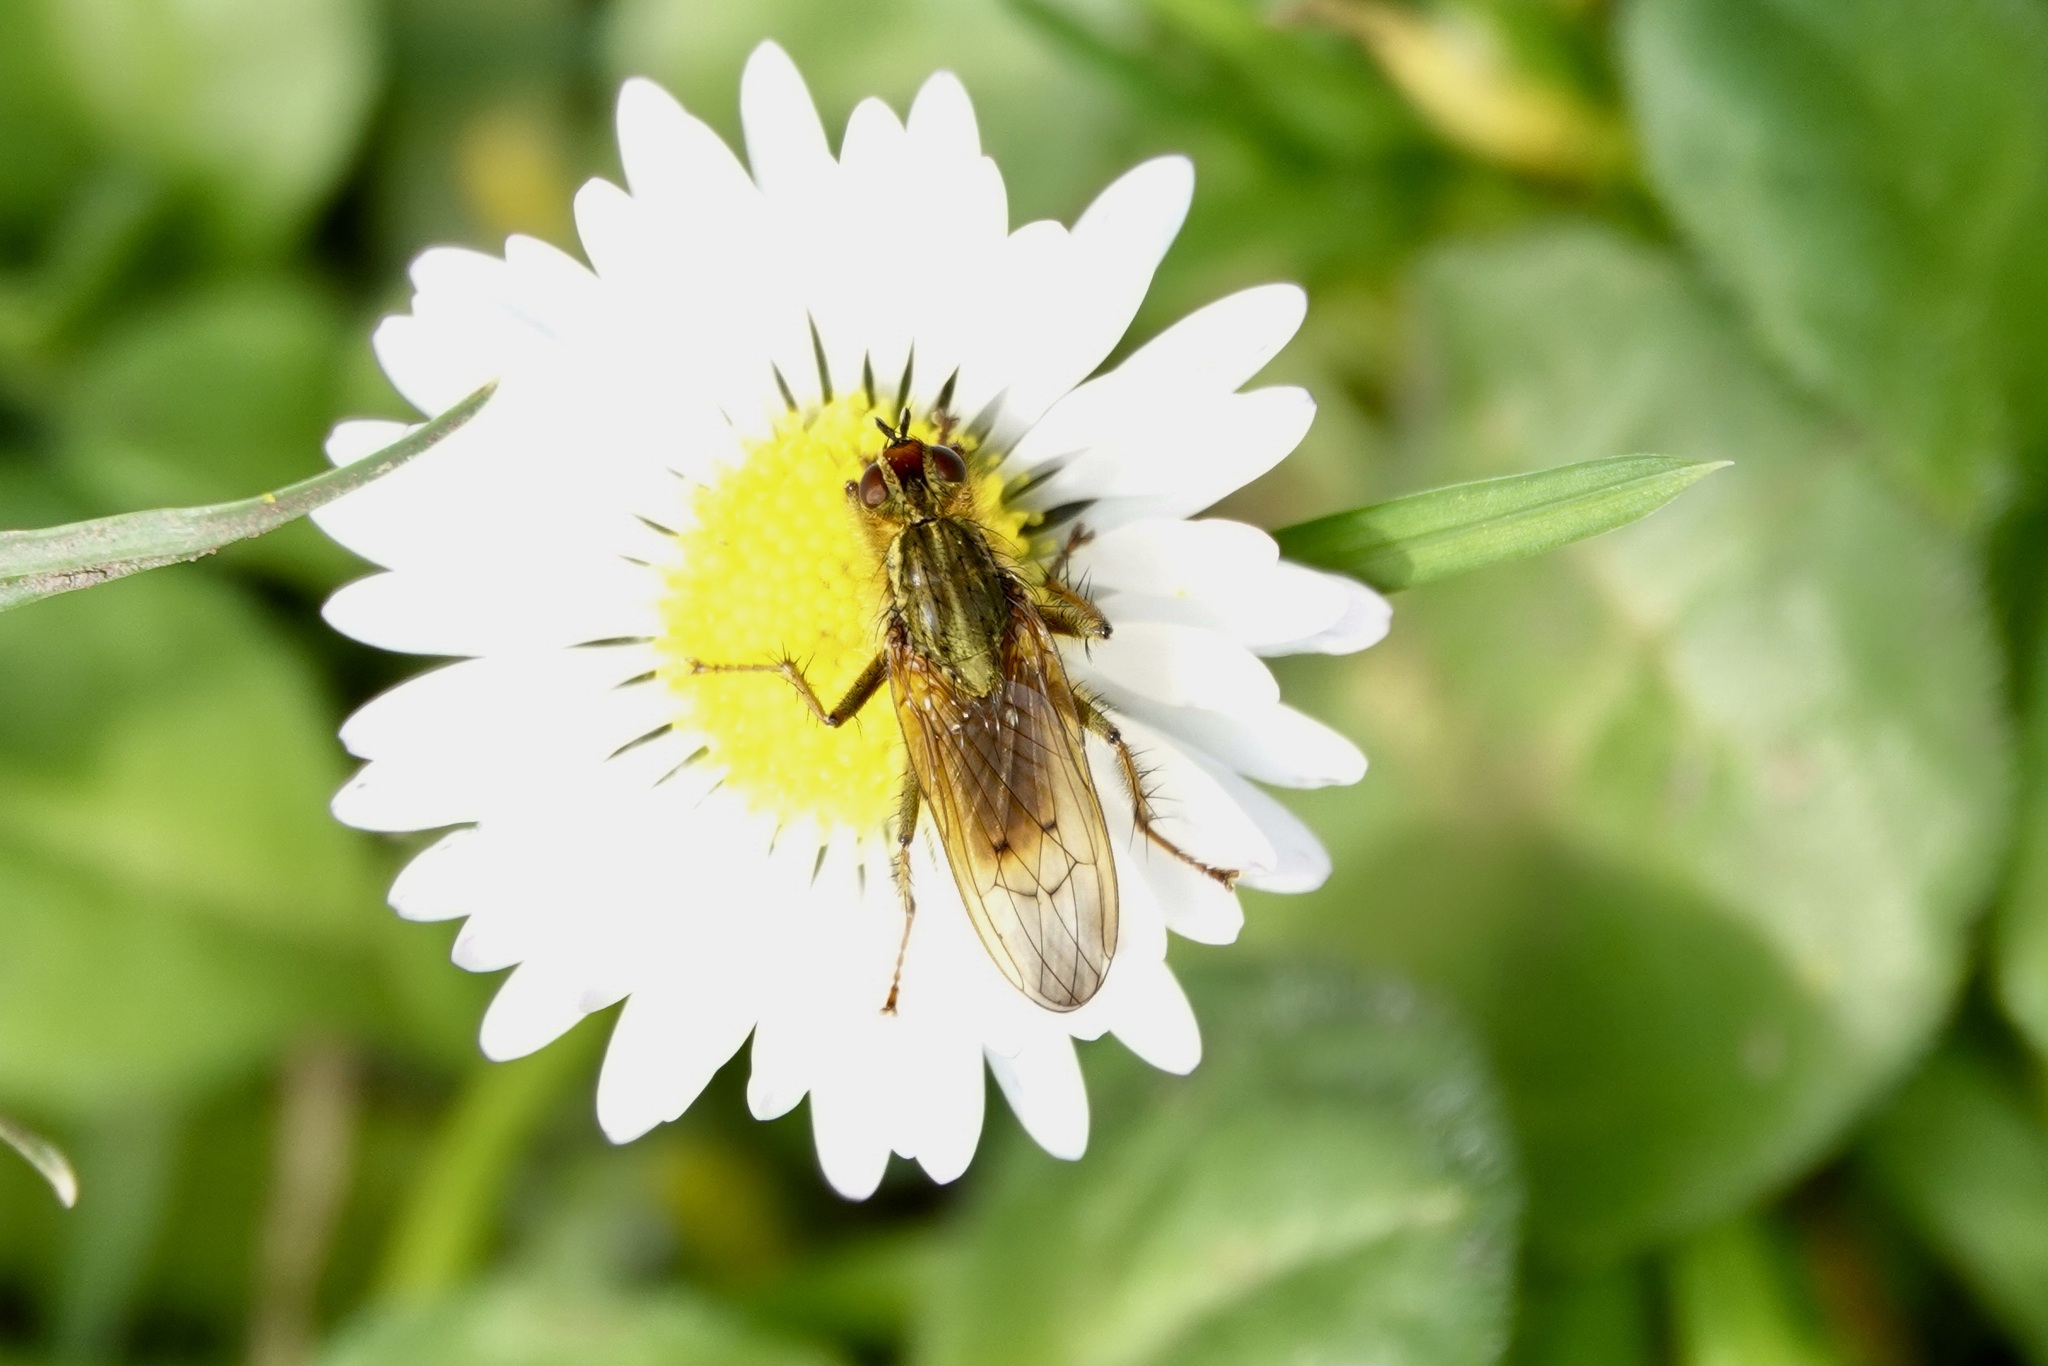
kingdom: Animalia
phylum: Arthropoda
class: Insecta
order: Diptera
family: Scathophagidae
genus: Scathophaga
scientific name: Scathophaga stercoraria
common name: Yellow dung fly
